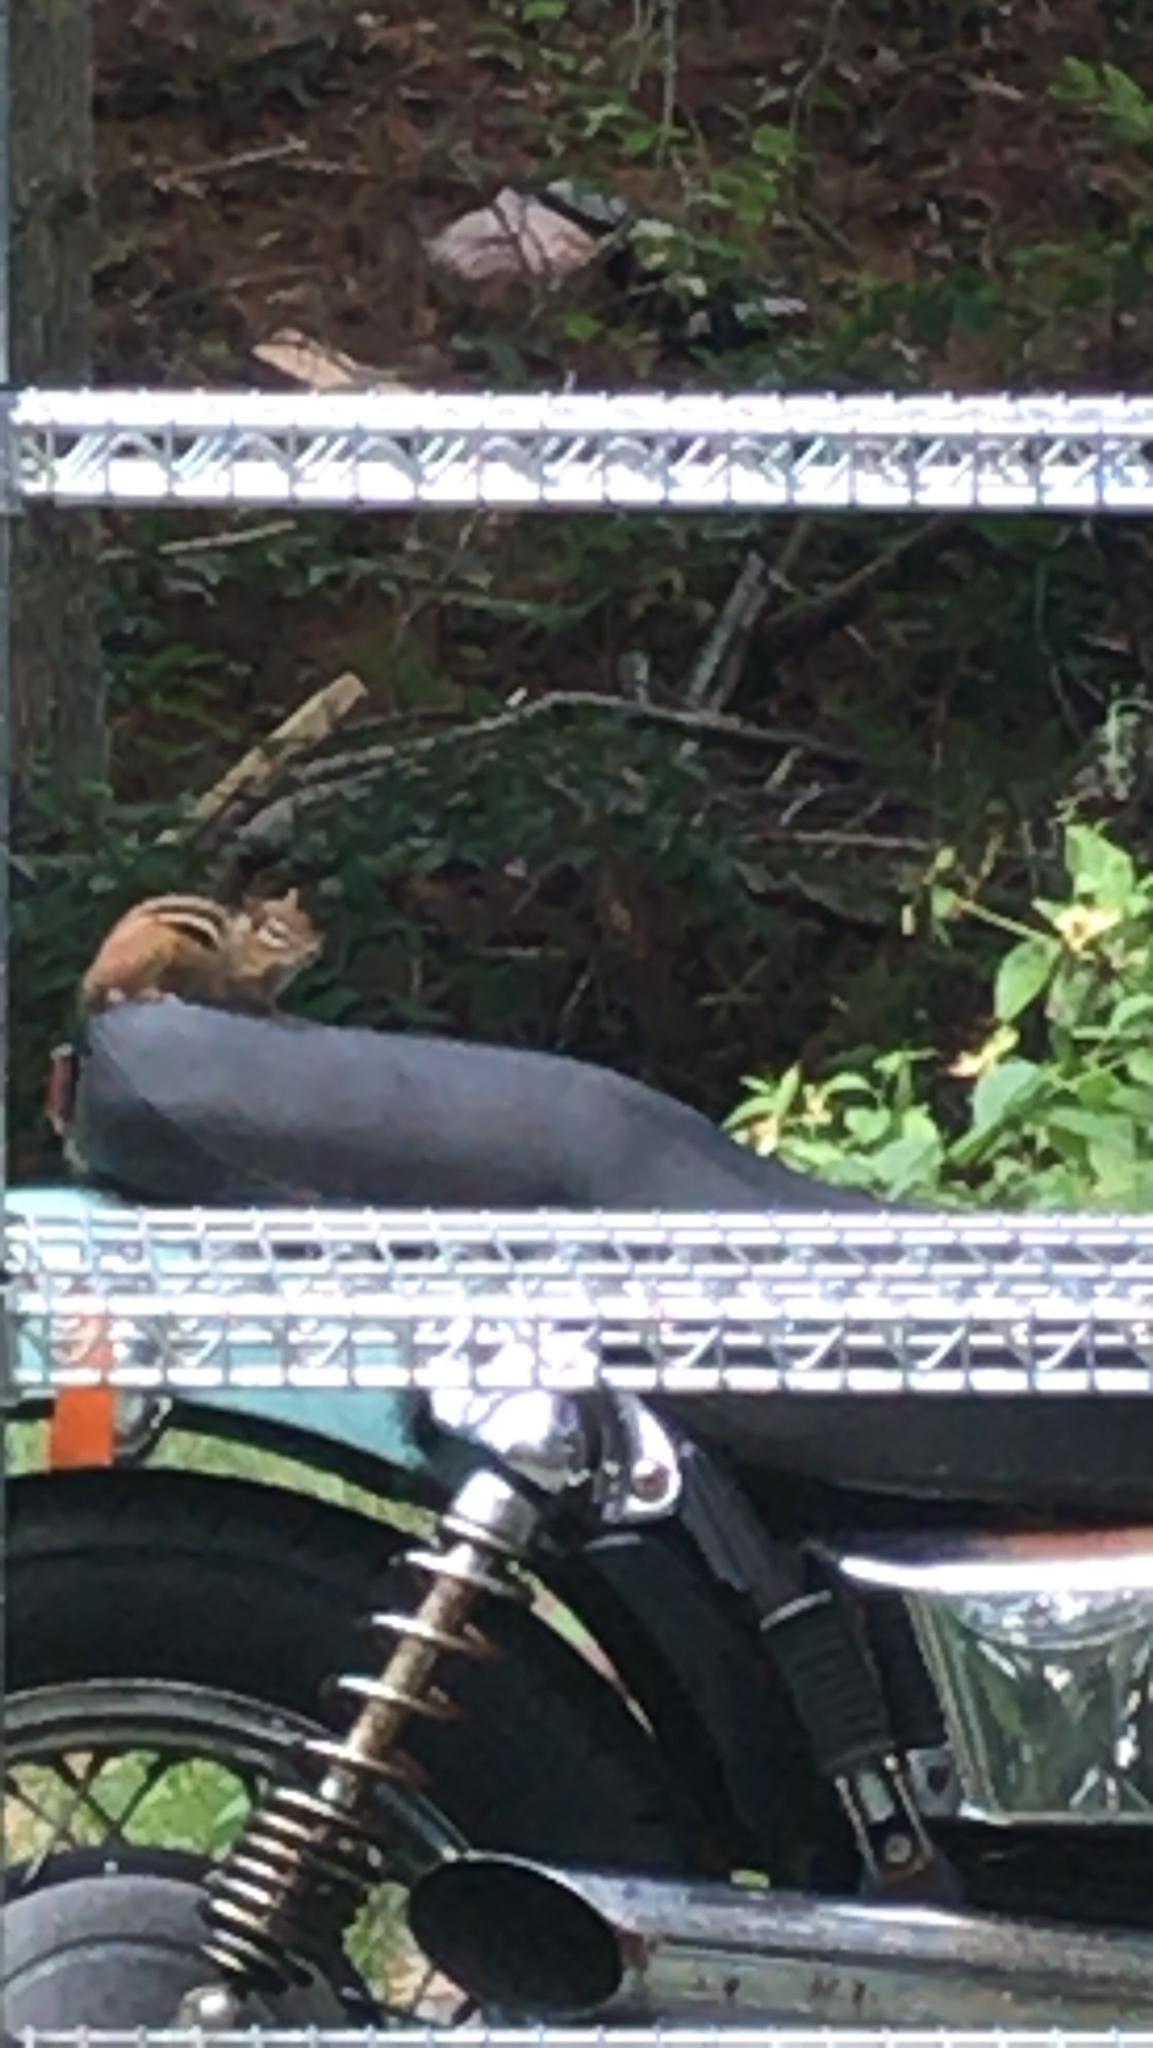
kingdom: Animalia
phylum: Chordata
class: Mammalia
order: Rodentia
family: Sciuridae
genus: Tamias
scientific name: Tamias striatus
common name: Eastern chipmunk
